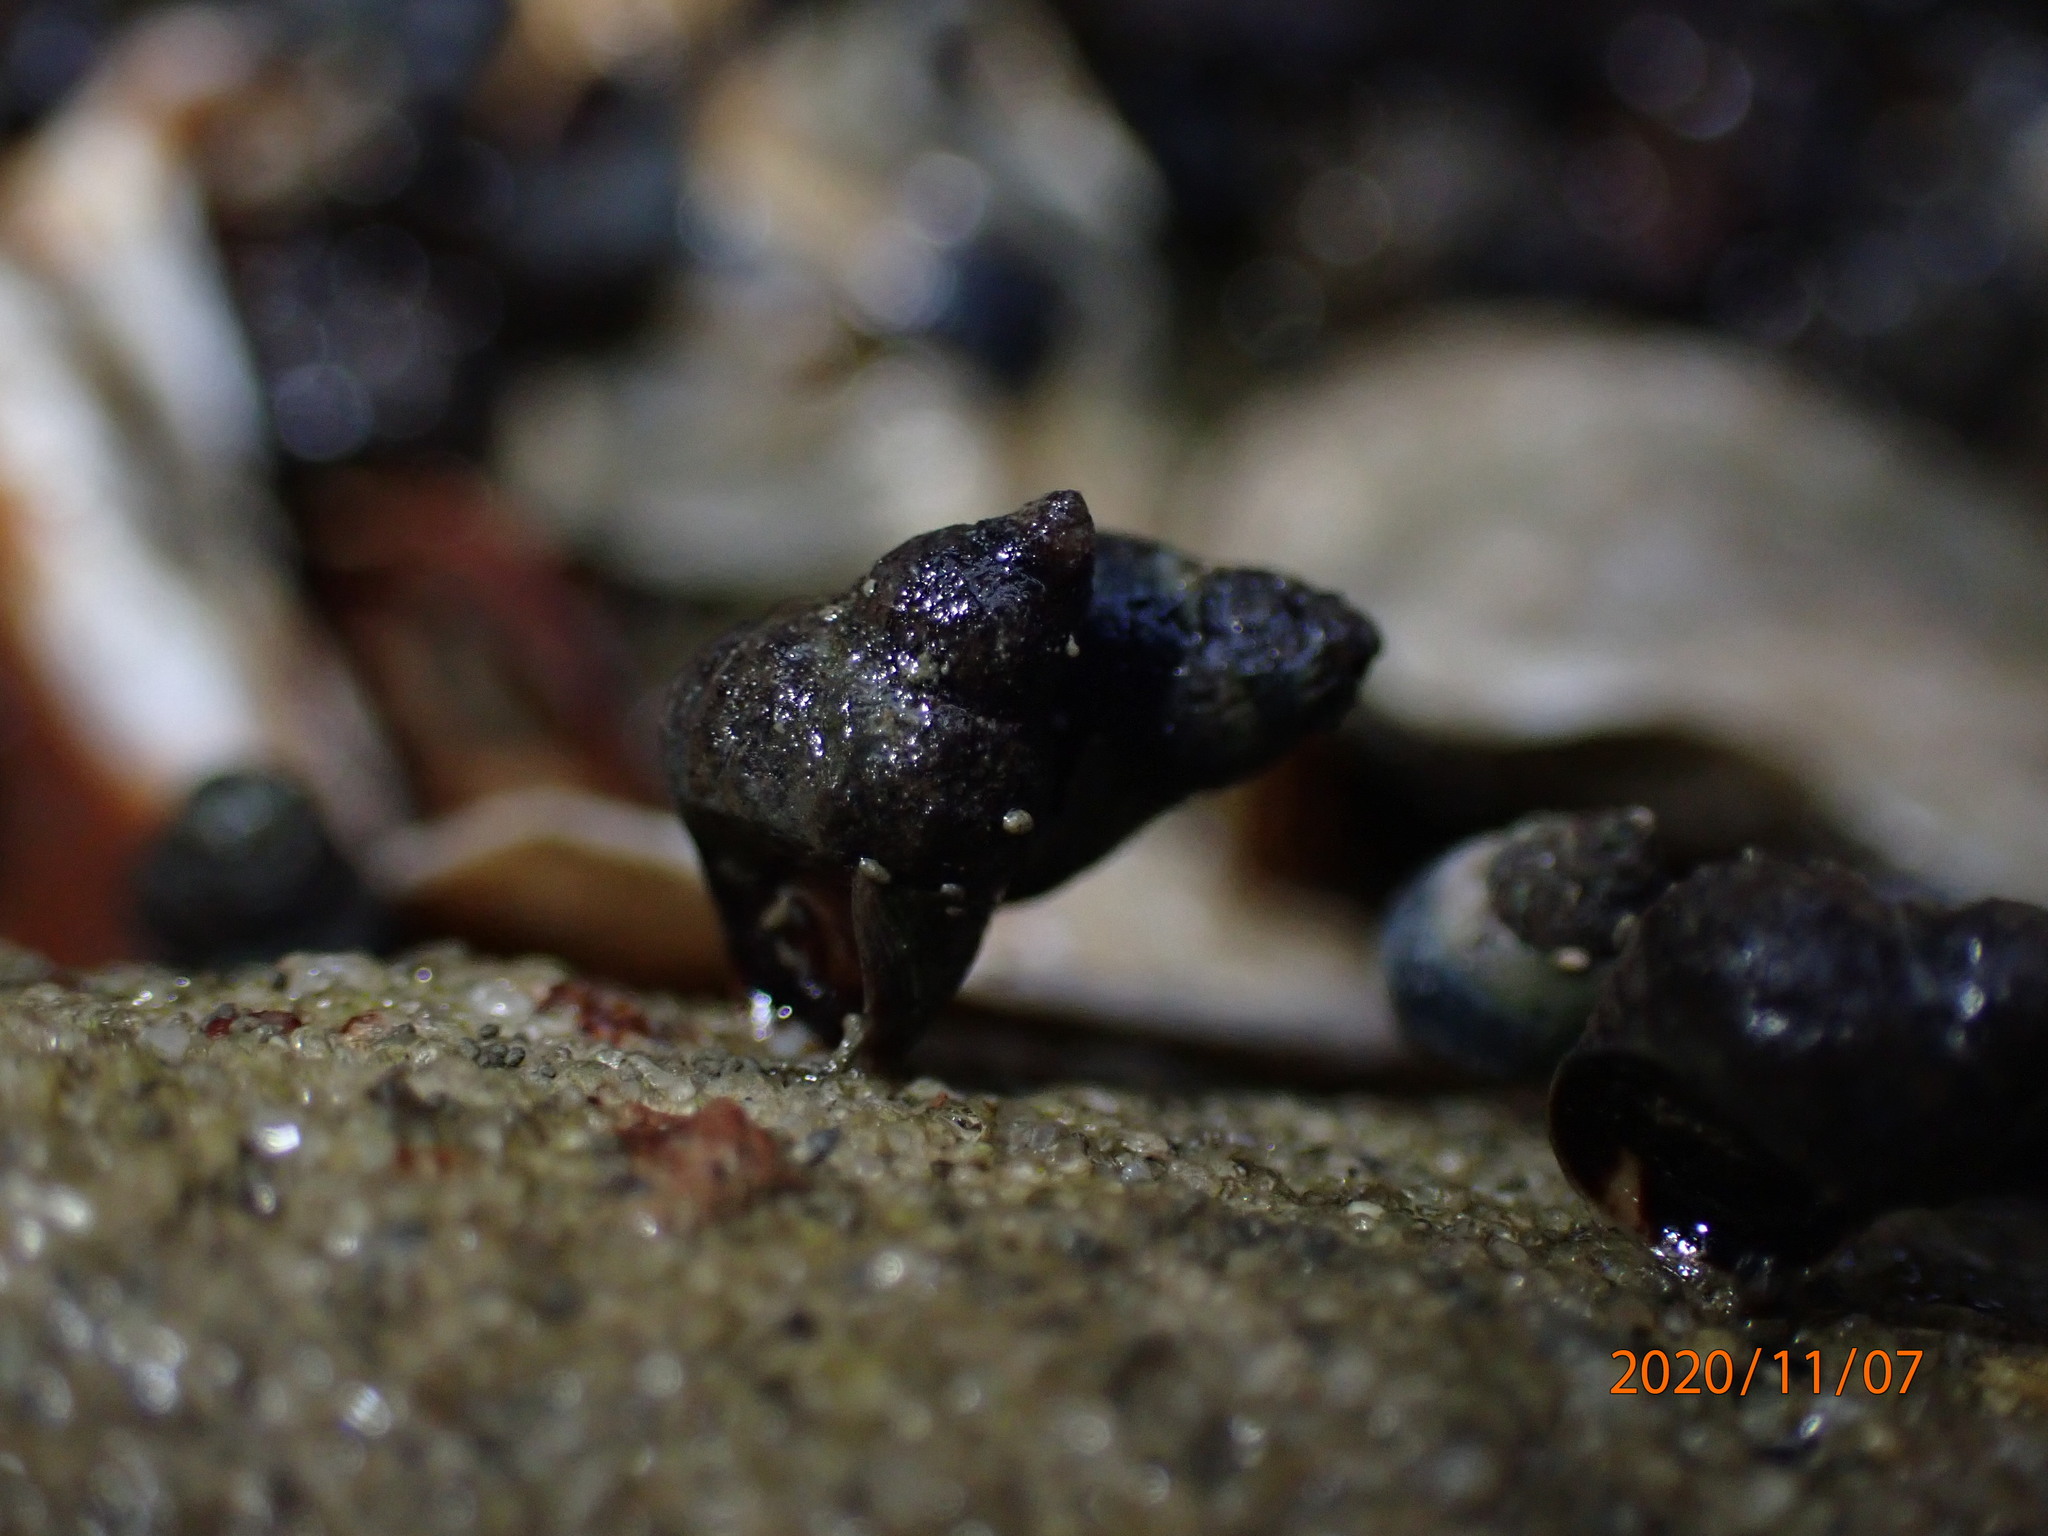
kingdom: Animalia
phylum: Mollusca
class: Gastropoda
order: Littorinimorpha
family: Littorinidae
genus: Austrolittorina
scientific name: Austrolittorina antipodum
